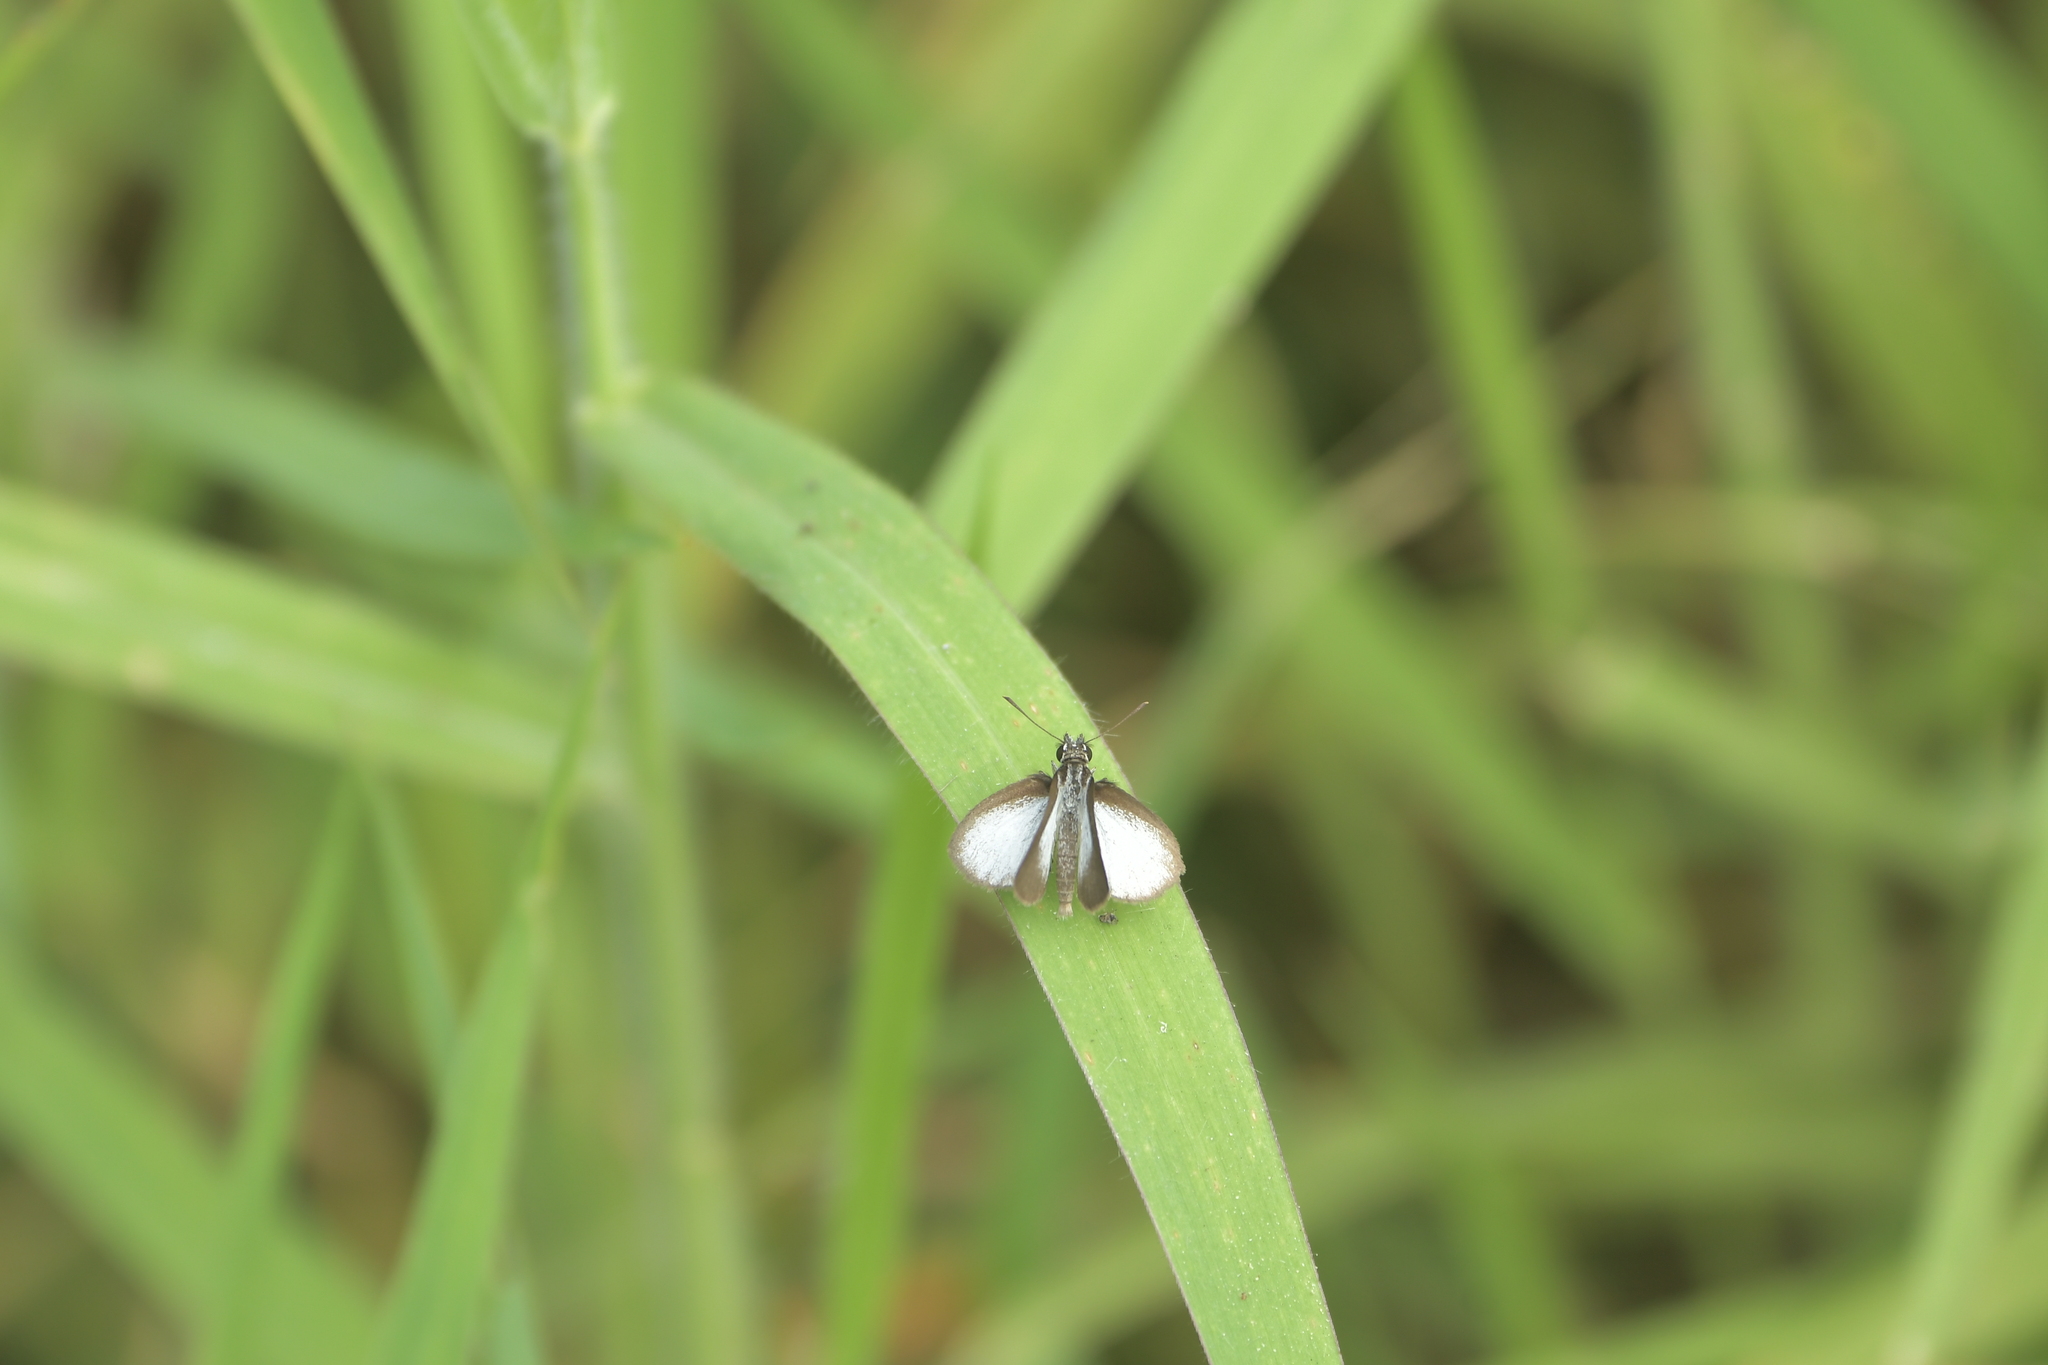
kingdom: Animalia
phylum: Arthropoda
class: Insecta
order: Lepidoptera
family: Hesperiidae
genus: Aeromachus
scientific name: Aeromachus plumbeola
